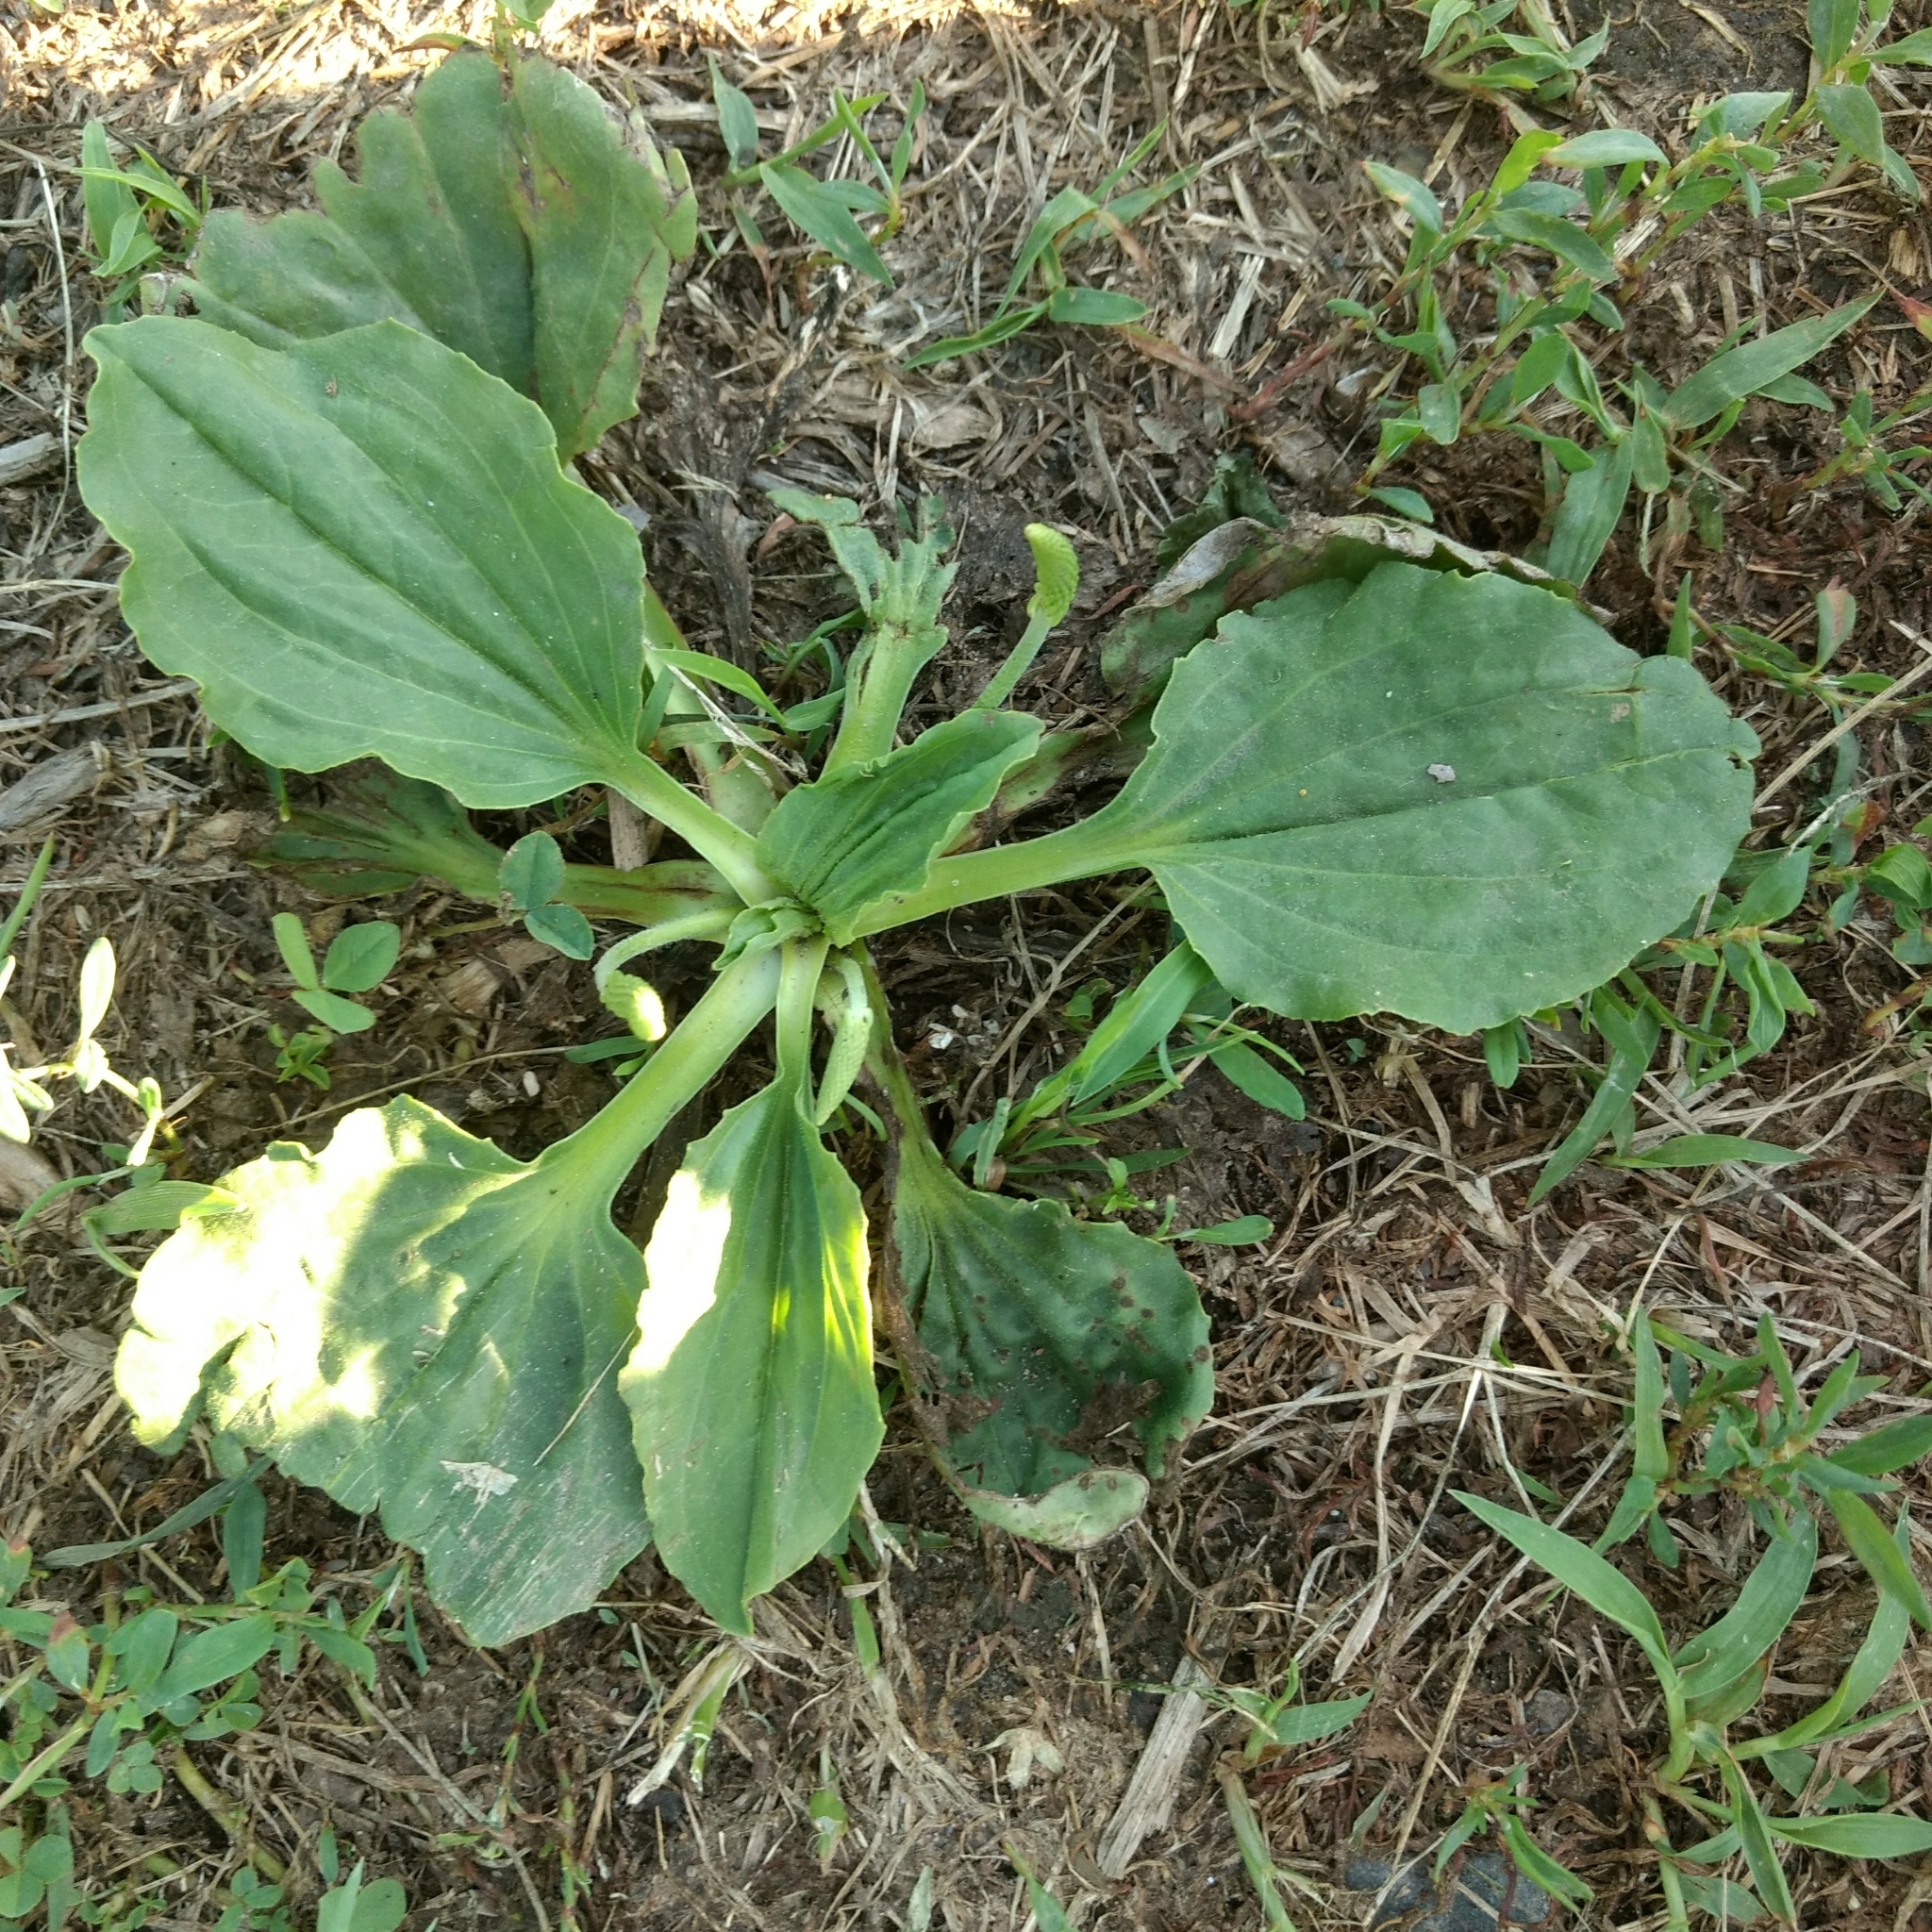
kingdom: Plantae
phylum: Tracheophyta
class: Magnoliopsida
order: Lamiales
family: Plantaginaceae
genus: Plantago
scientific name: Plantago major
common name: Common plantain
